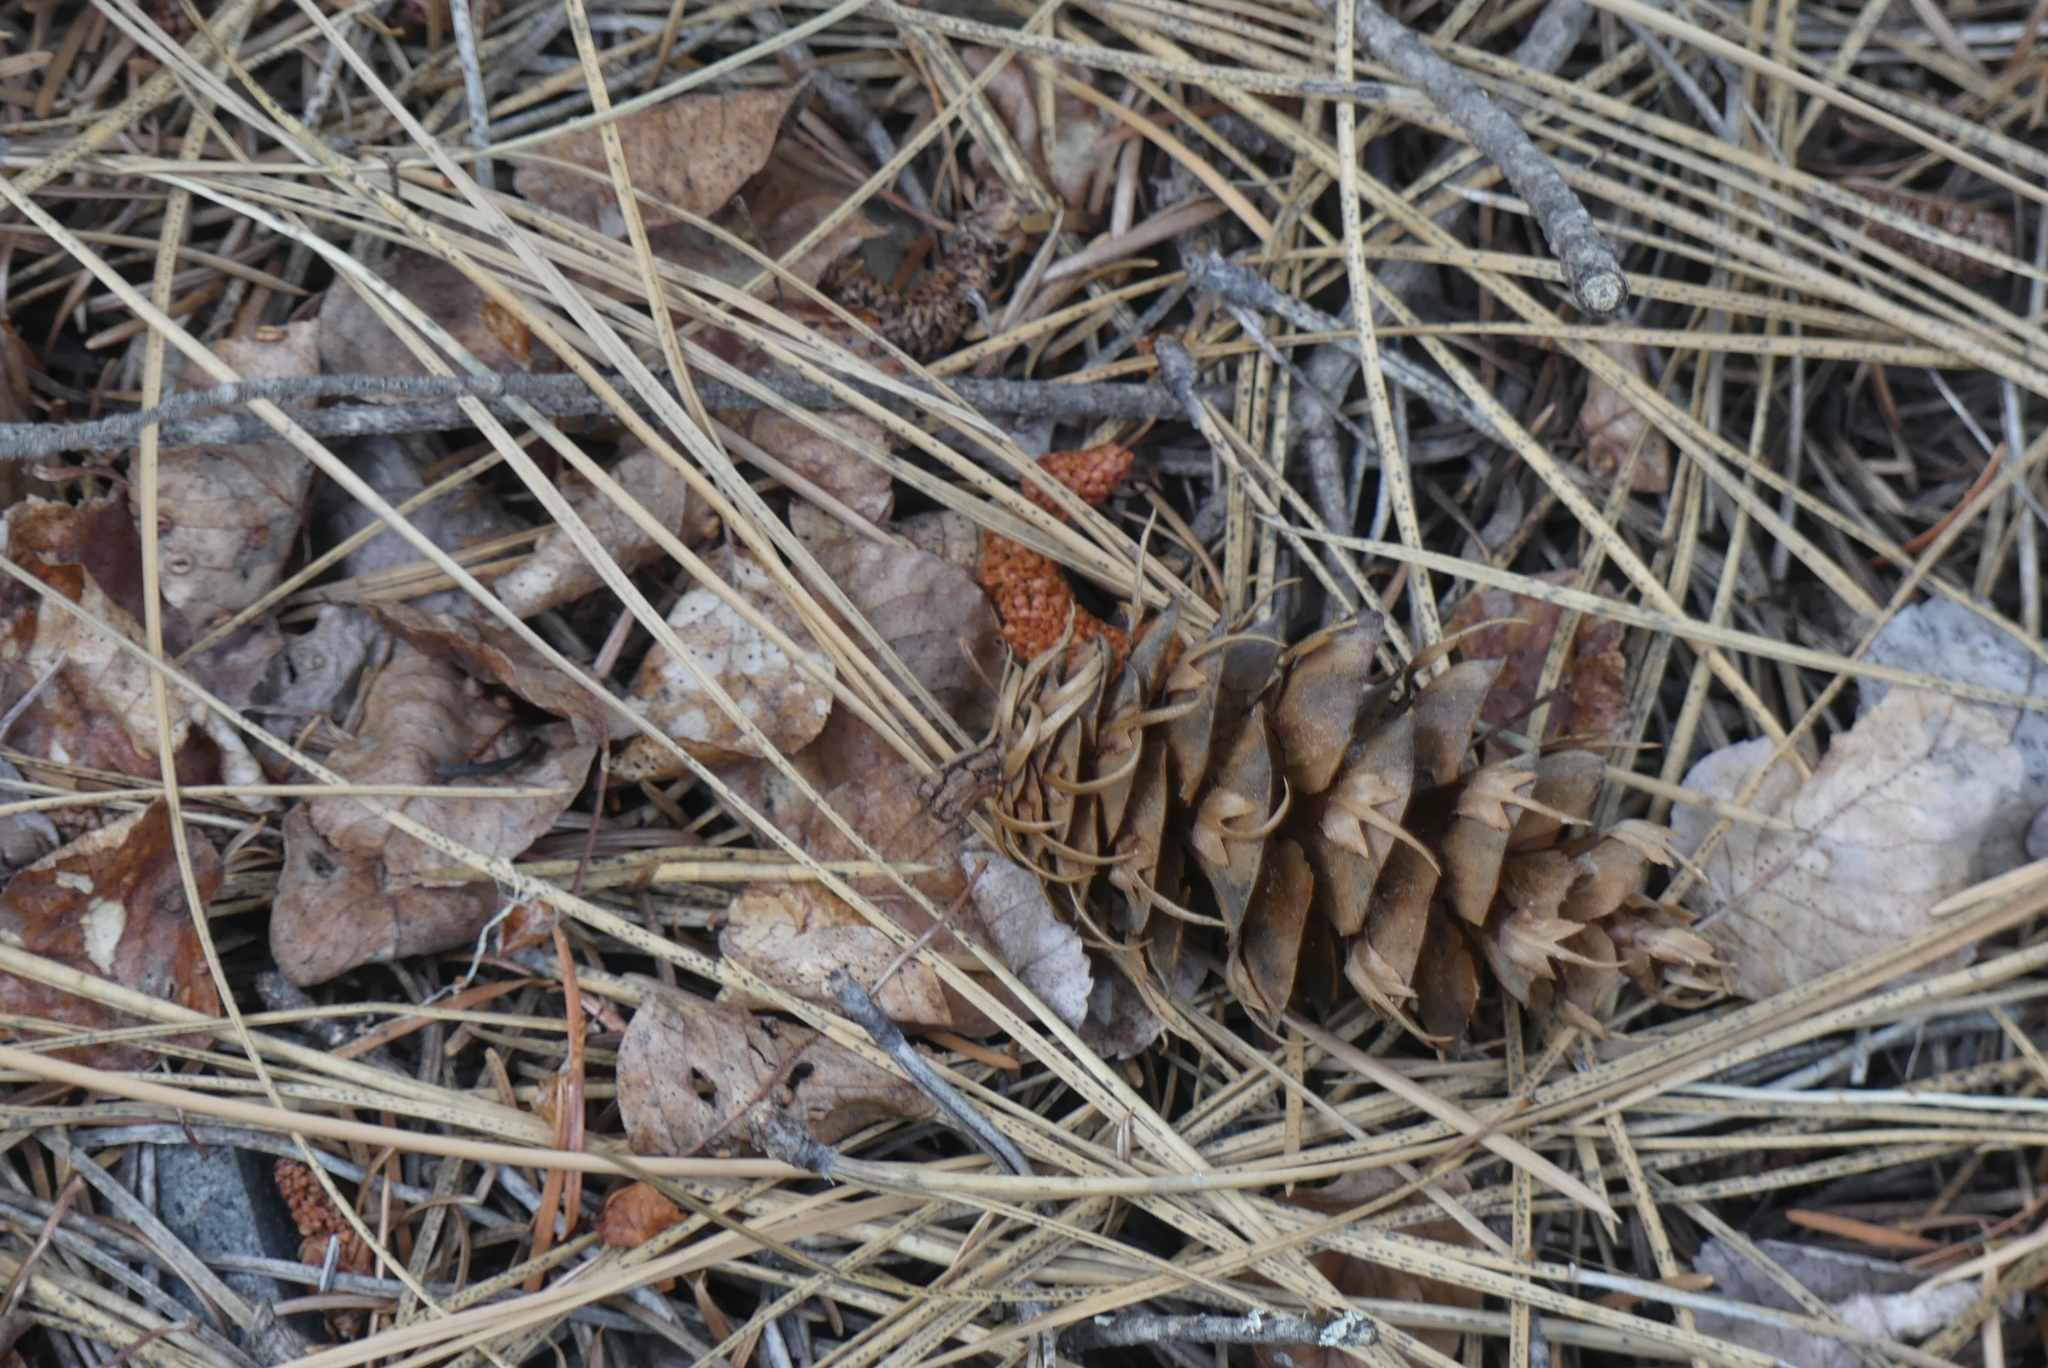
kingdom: Plantae
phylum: Tracheophyta
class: Pinopsida
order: Pinales
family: Pinaceae
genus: Pseudotsuga
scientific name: Pseudotsuga menziesii
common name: Douglas fir
